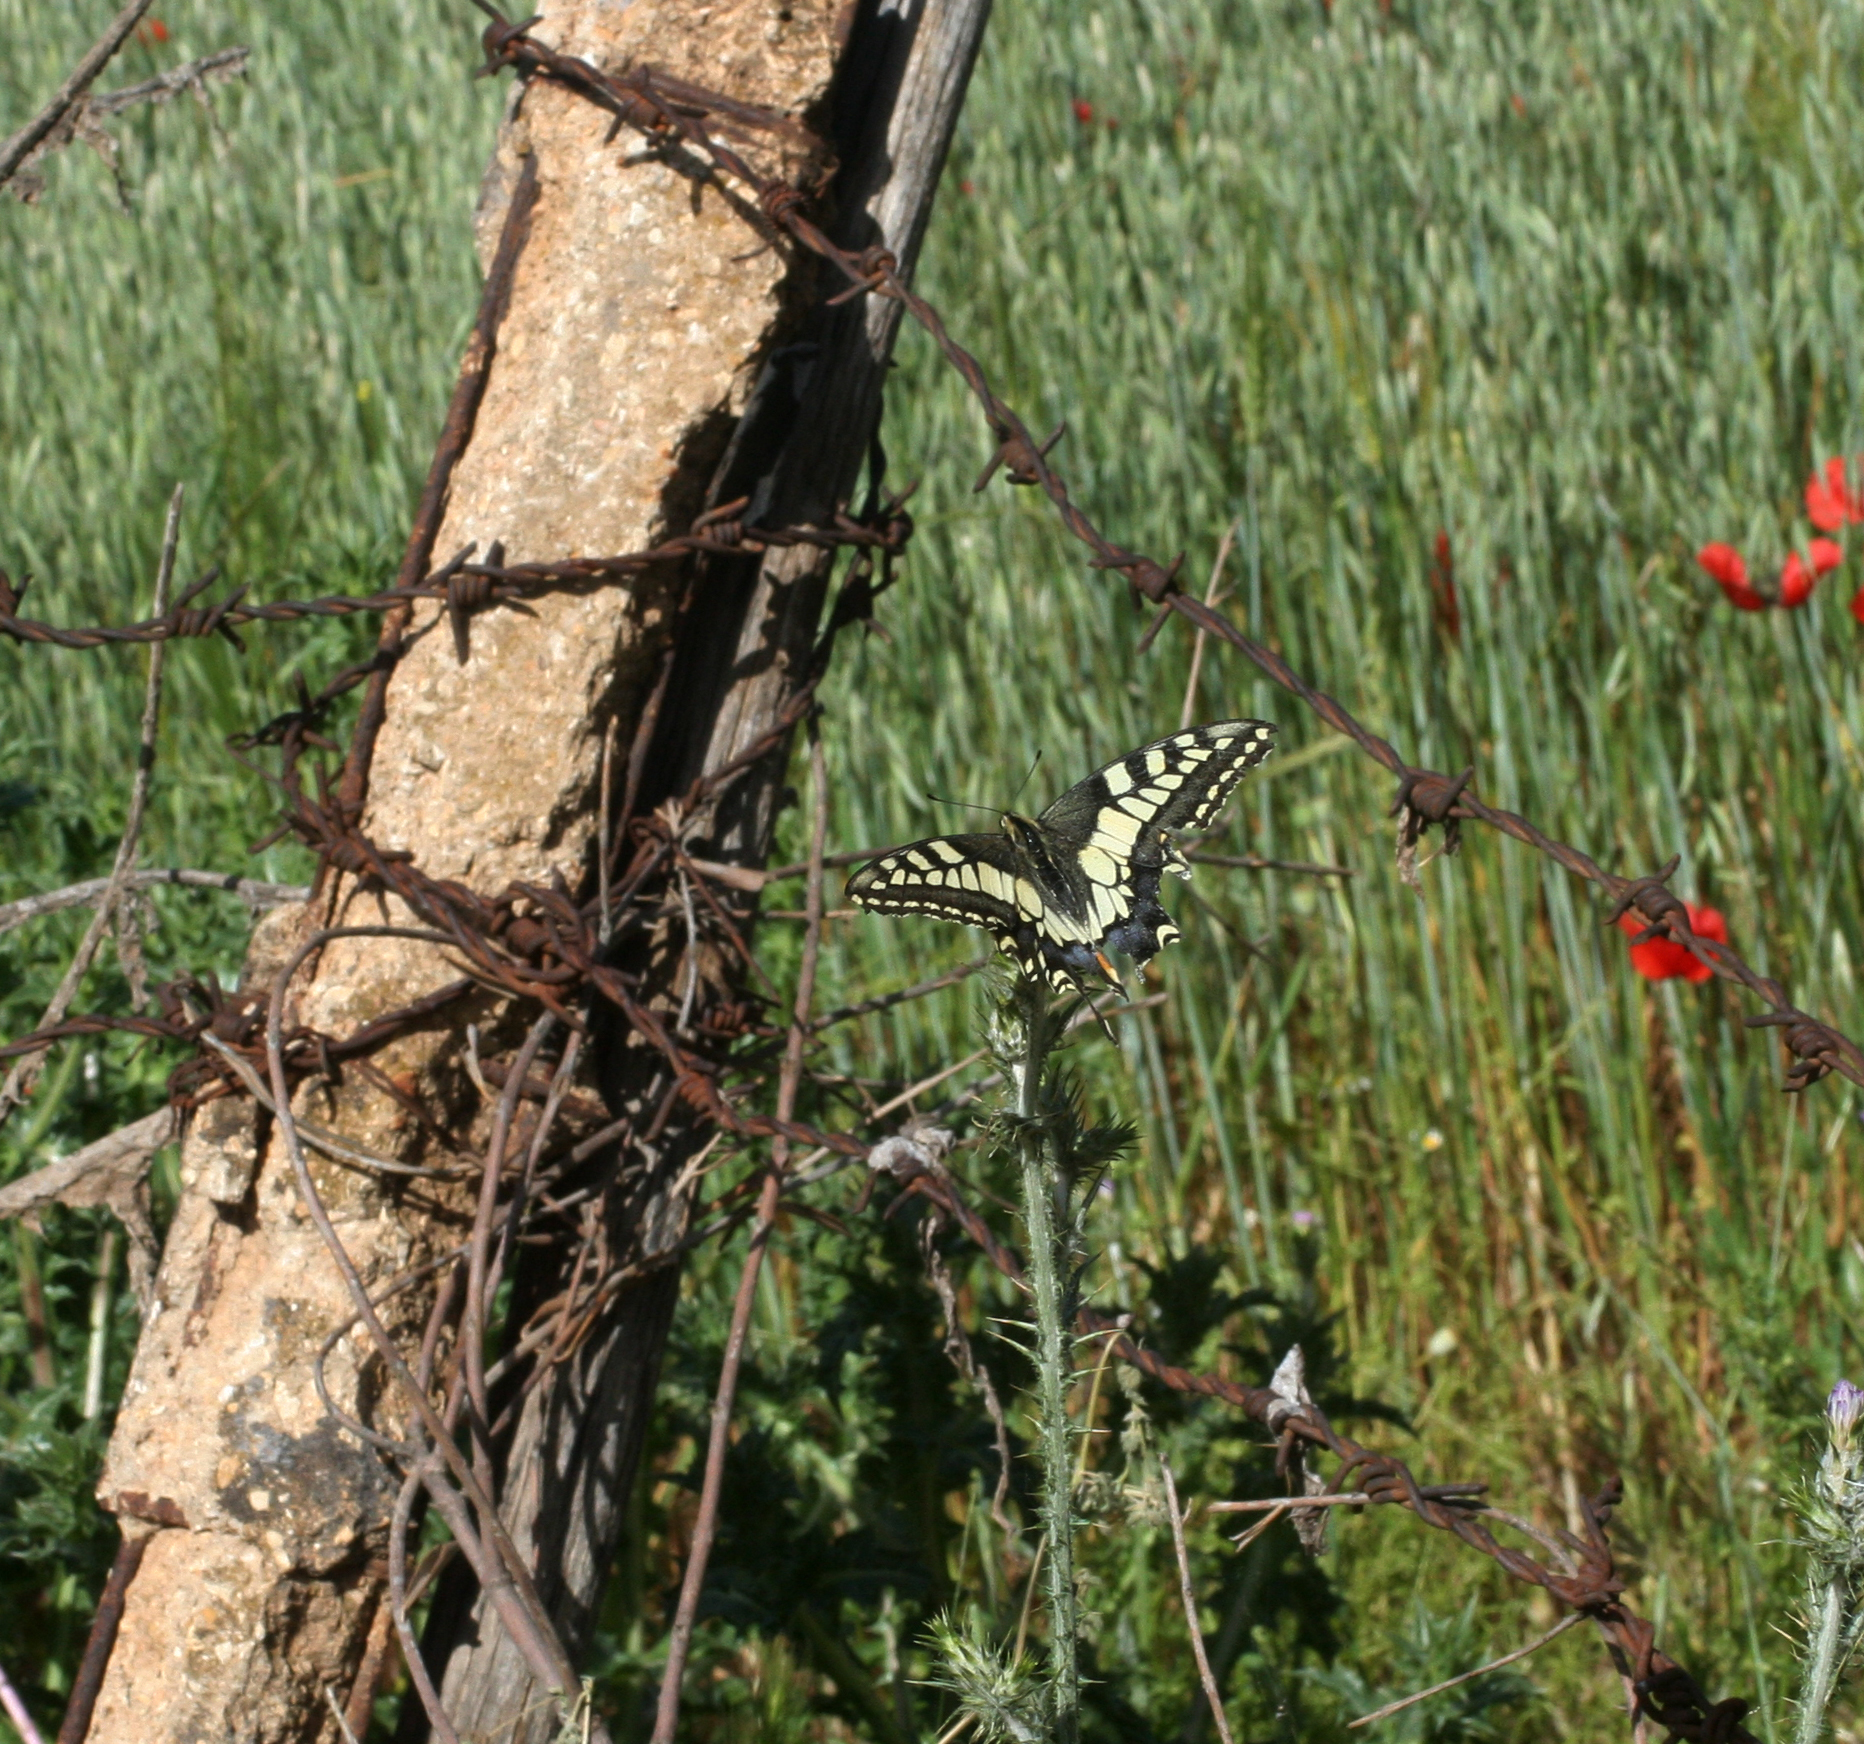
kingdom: Animalia
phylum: Arthropoda
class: Insecta
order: Lepidoptera
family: Papilionidae
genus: Papilio
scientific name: Papilio machaon
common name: Swallowtail
